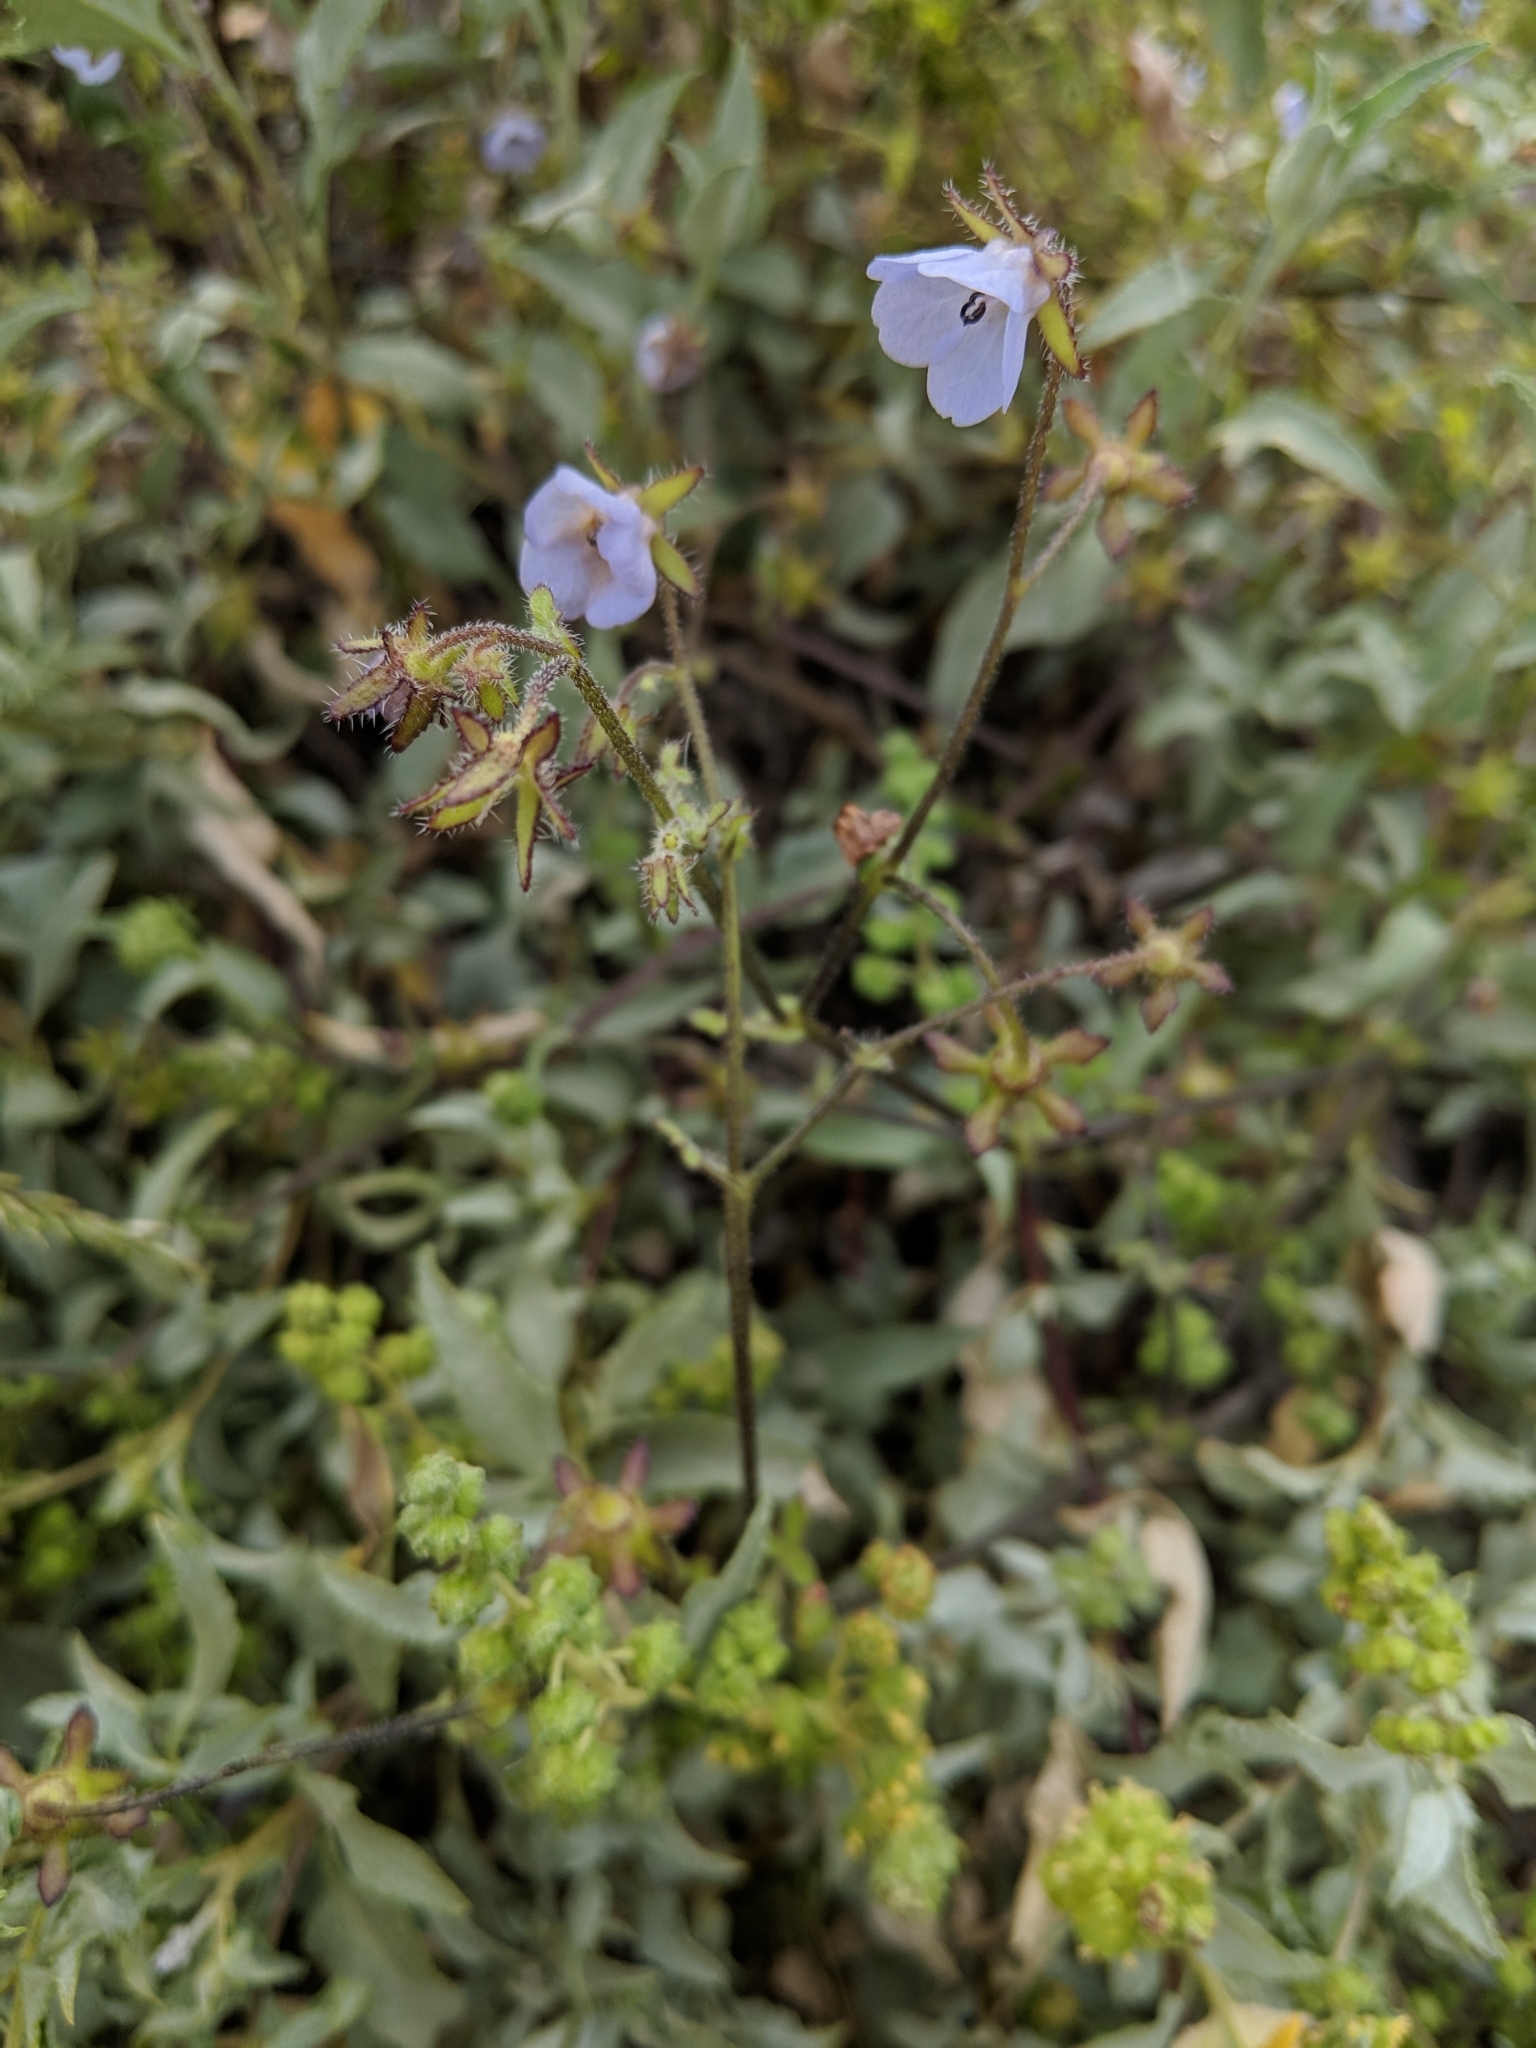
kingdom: Plantae
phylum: Tracheophyta
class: Magnoliopsida
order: Boraginales
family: Hydrophyllaceae
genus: Pholistoma
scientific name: Pholistoma auritum
